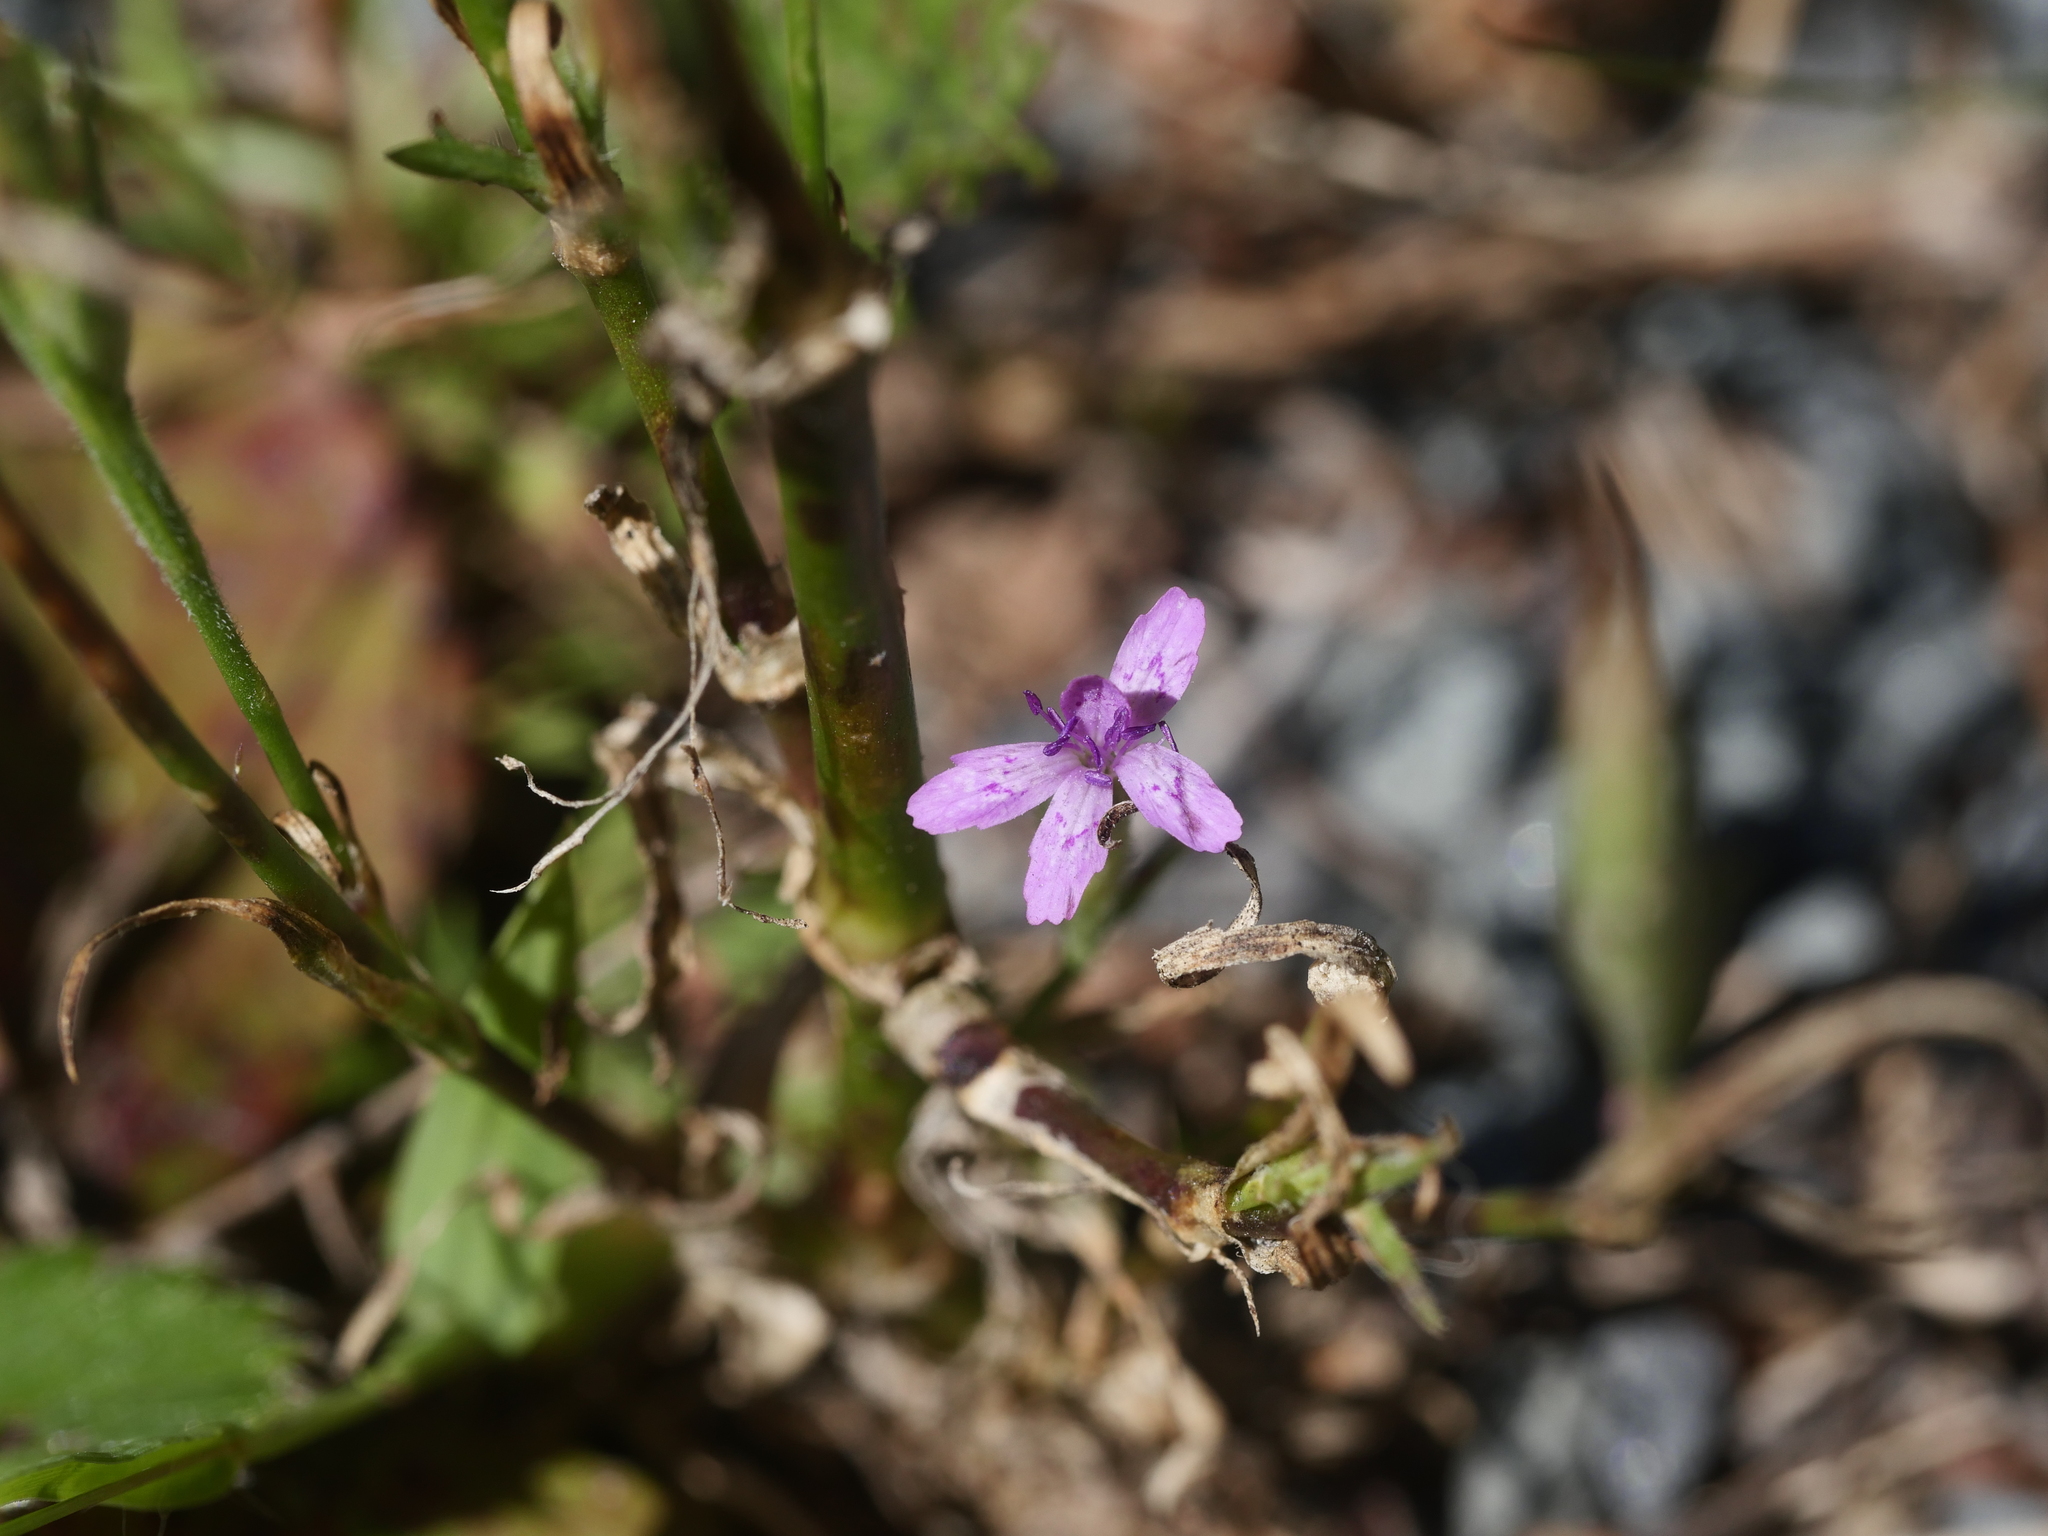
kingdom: Plantae
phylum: Tracheophyta
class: Magnoliopsida
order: Caryophyllales
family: Caryophyllaceae
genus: Dianthus
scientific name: Dianthus armeria
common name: Deptford pink
